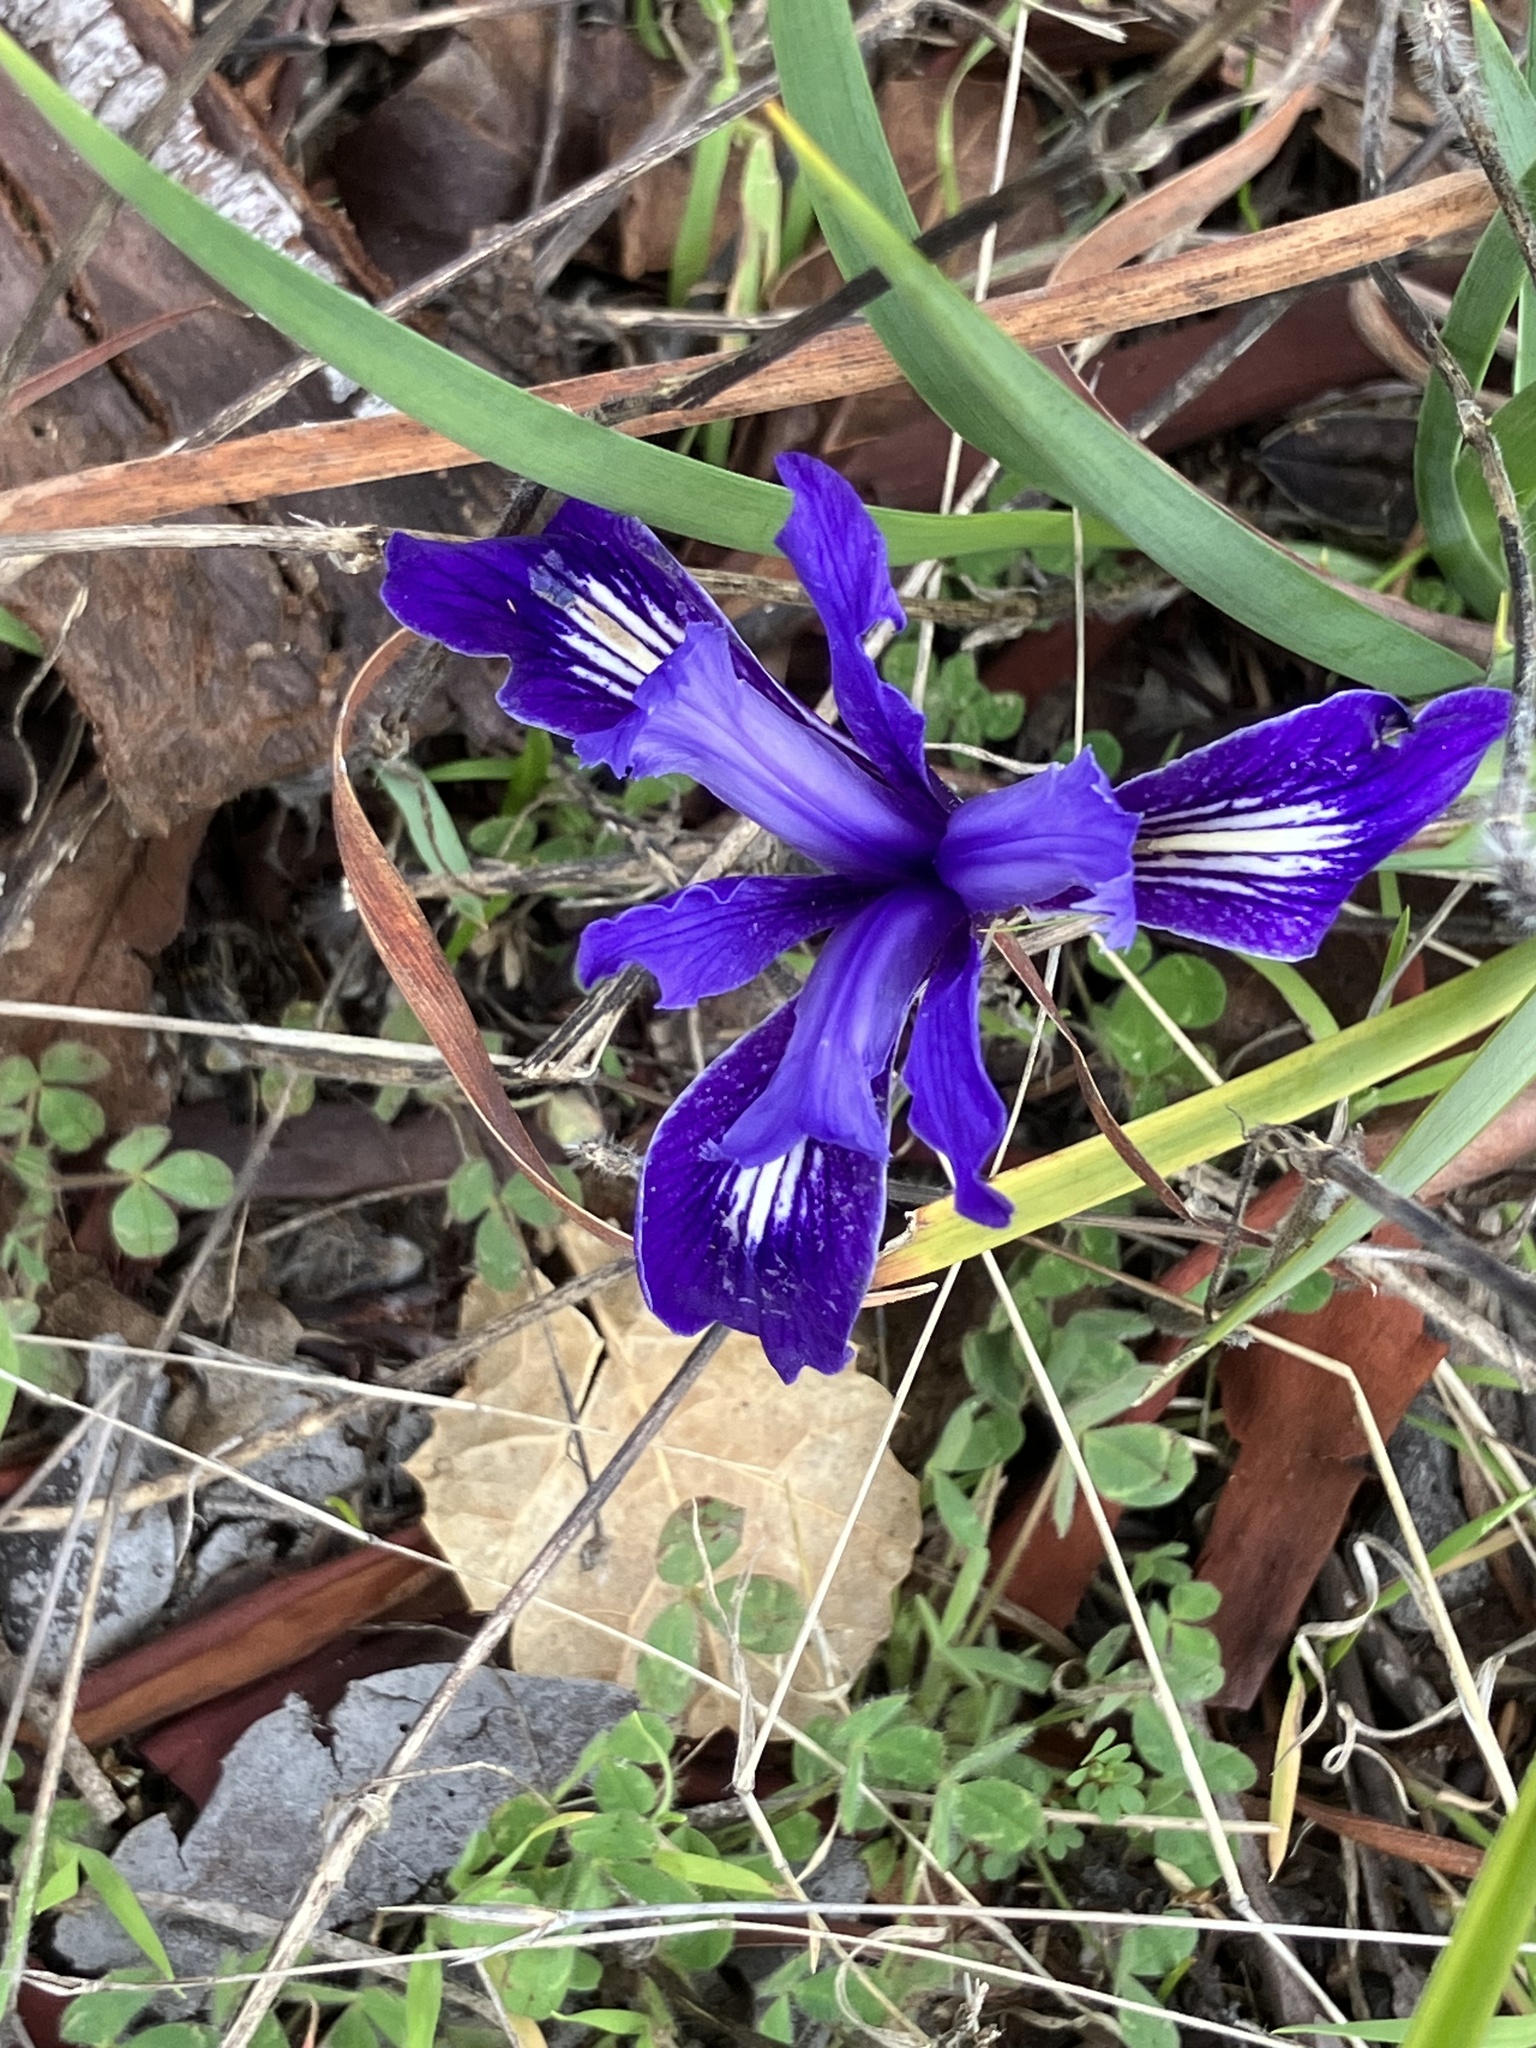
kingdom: Plantae
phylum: Tracheophyta
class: Liliopsida
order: Asparagales
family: Iridaceae
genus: Iris
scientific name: Iris macrosiphon
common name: Ground iris
